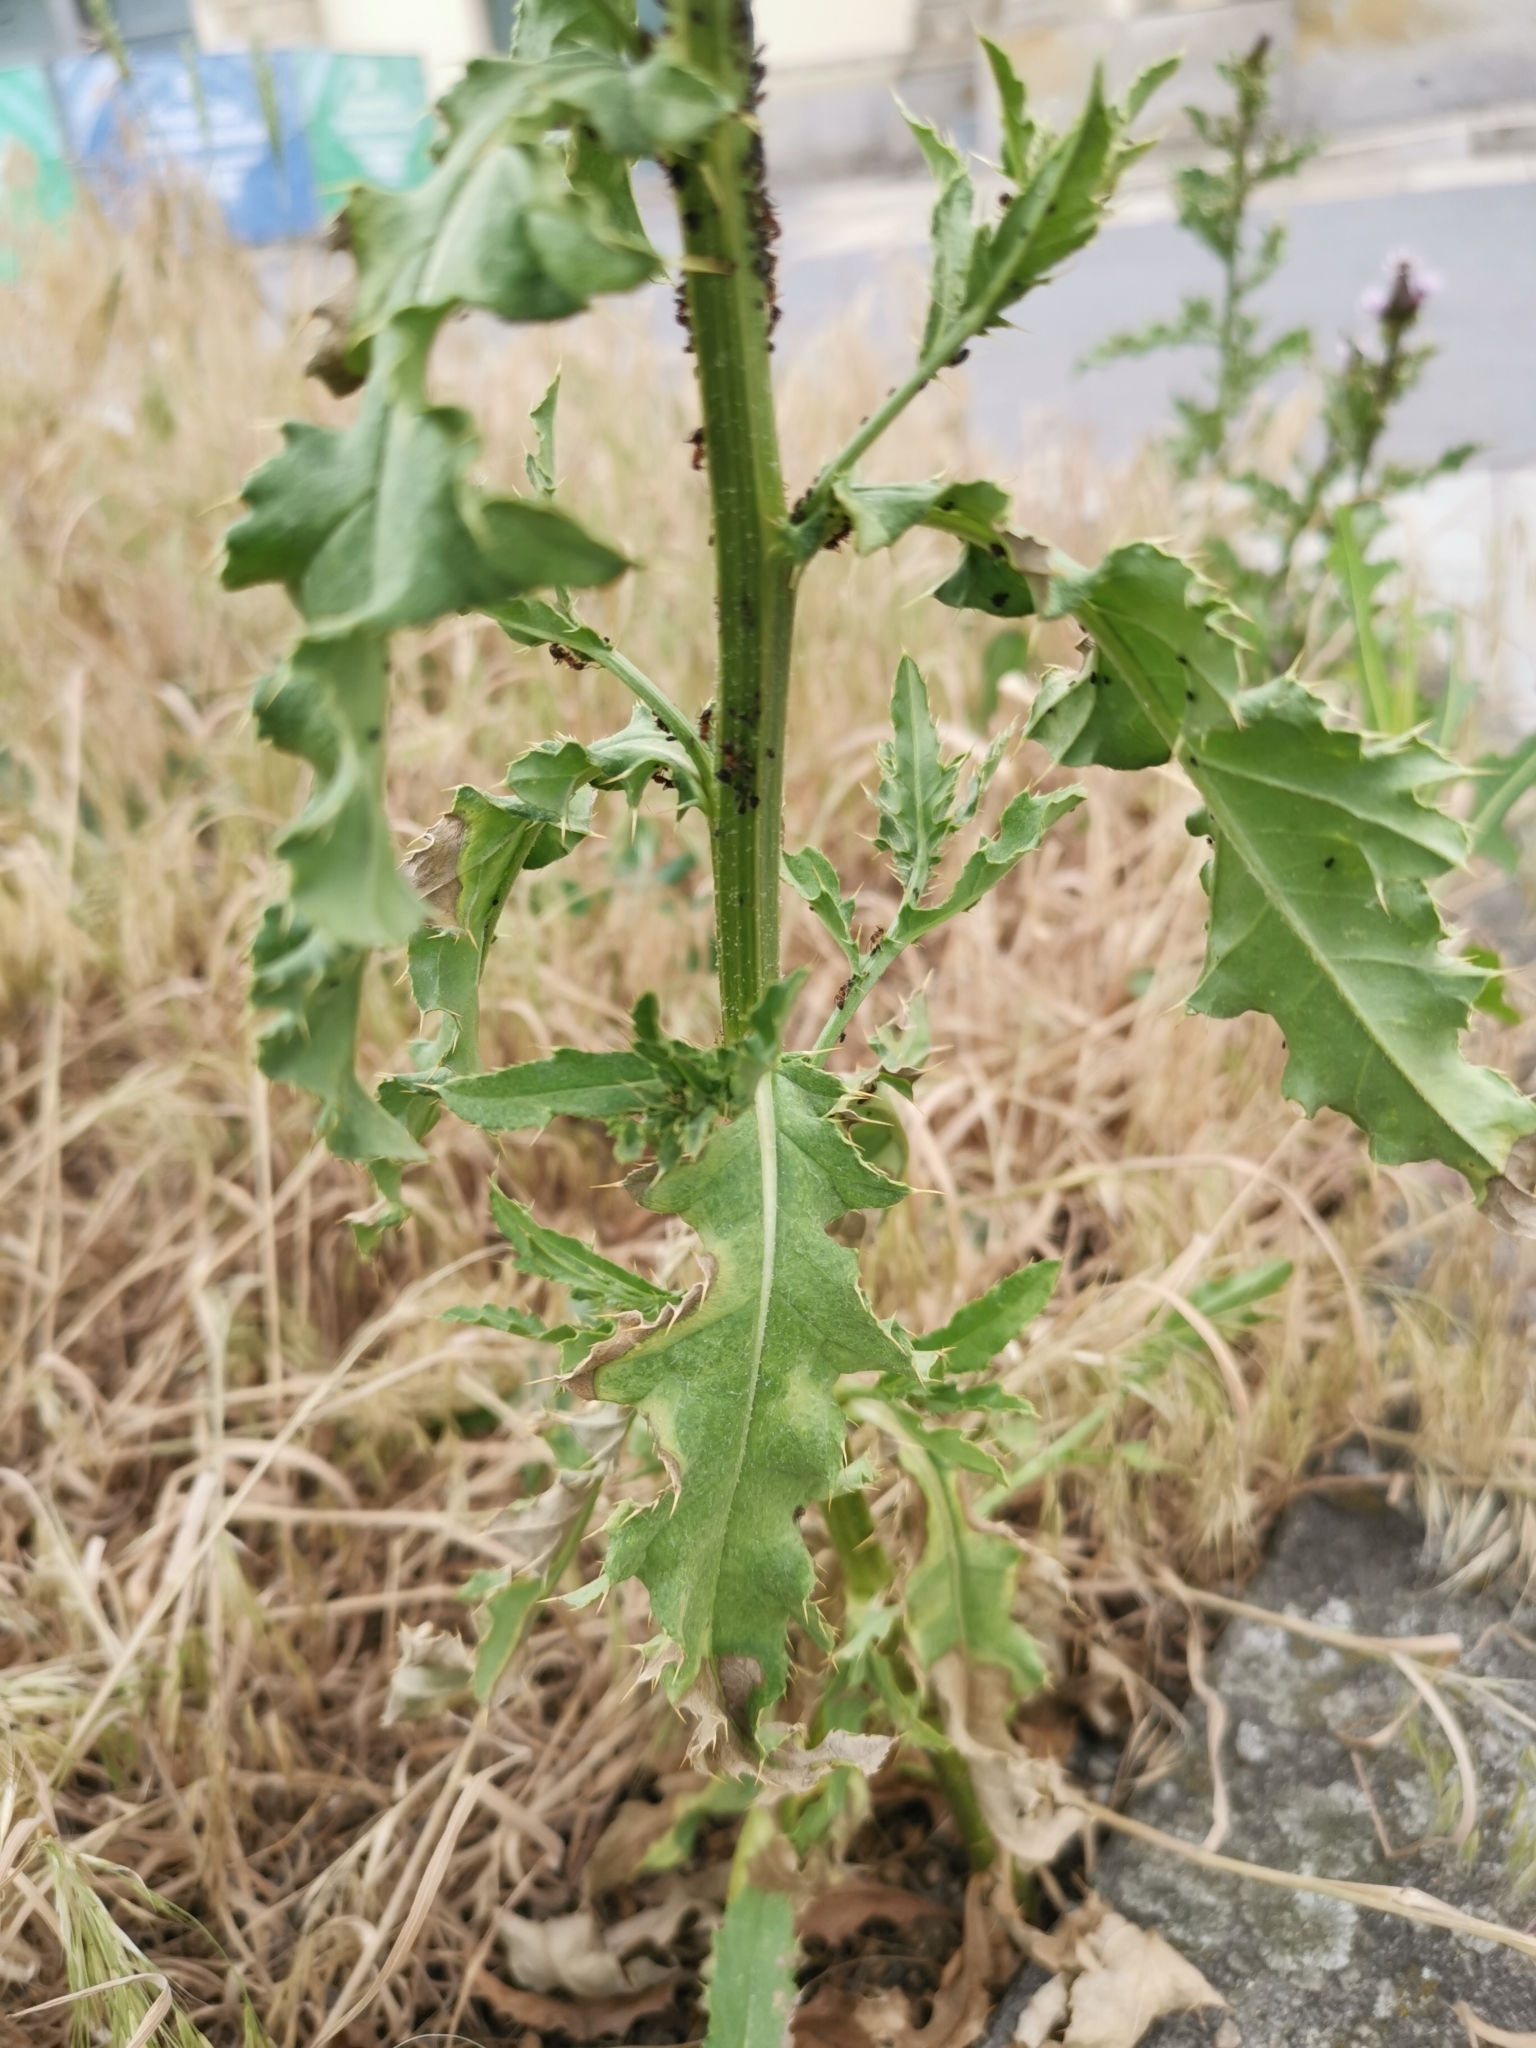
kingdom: Plantae
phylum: Tracheophyta
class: Magnoliopsida
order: Asterales
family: Asteraceae
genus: Cirsium
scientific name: Cirsium arvense
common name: Creeping thistle
